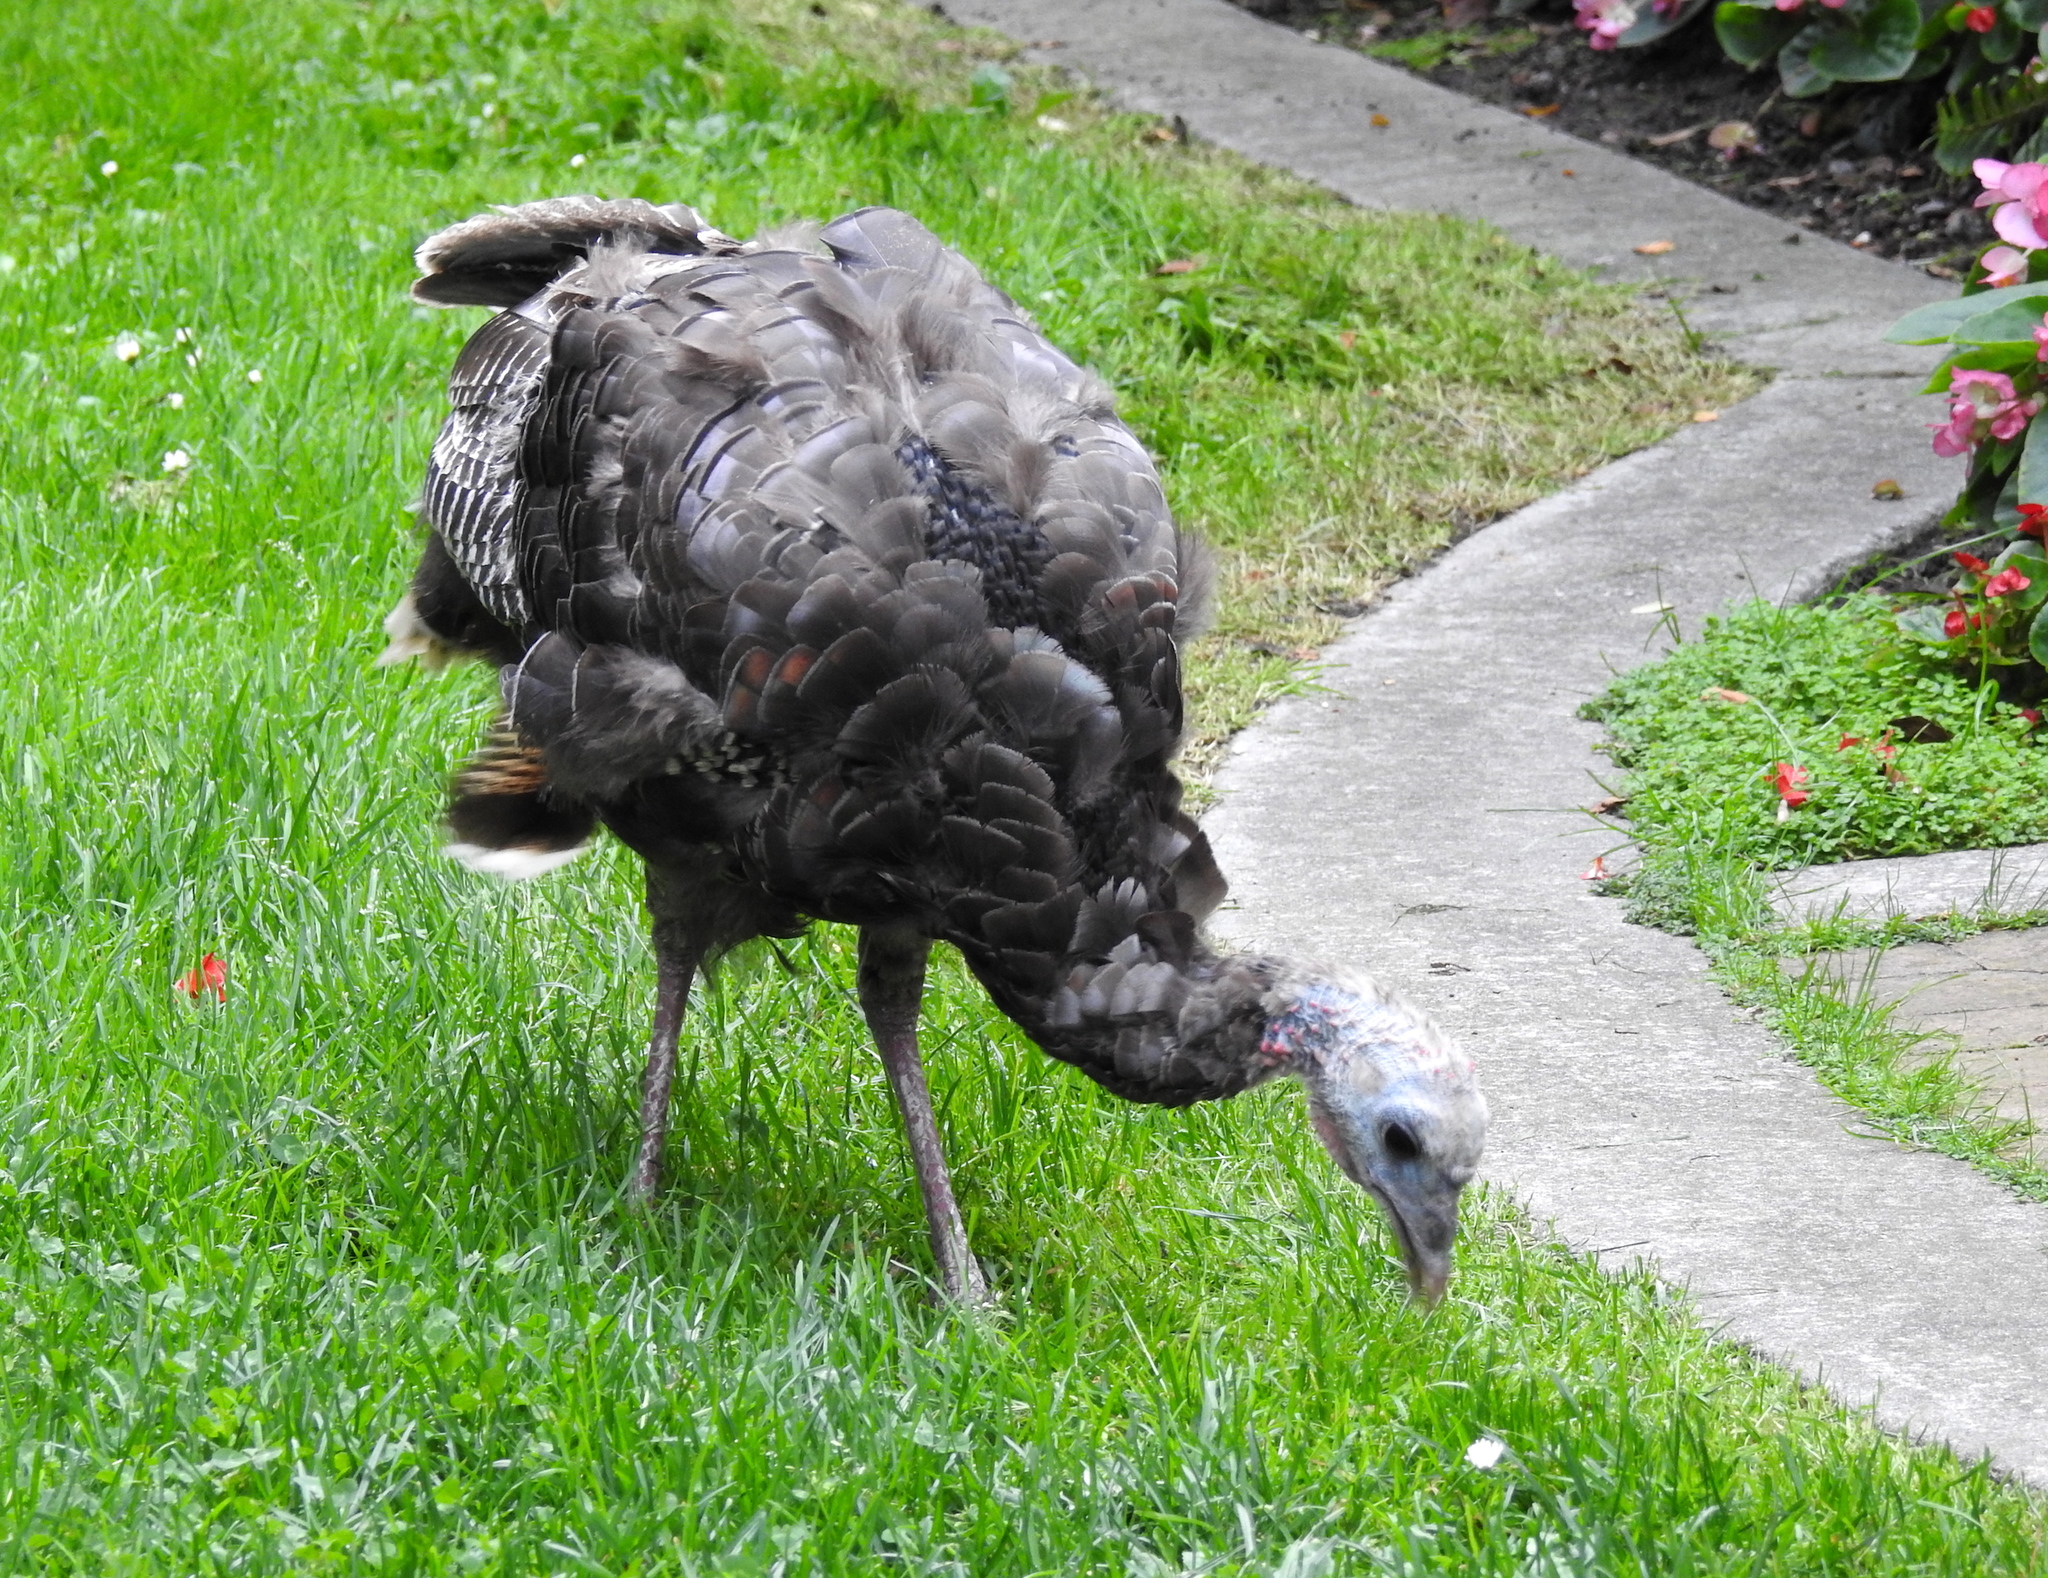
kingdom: Animalia
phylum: Chordata
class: Aves
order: Galliformes
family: Phasianidae
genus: Meleagris
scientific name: Meleagris gallopavo
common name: Wild turkey
